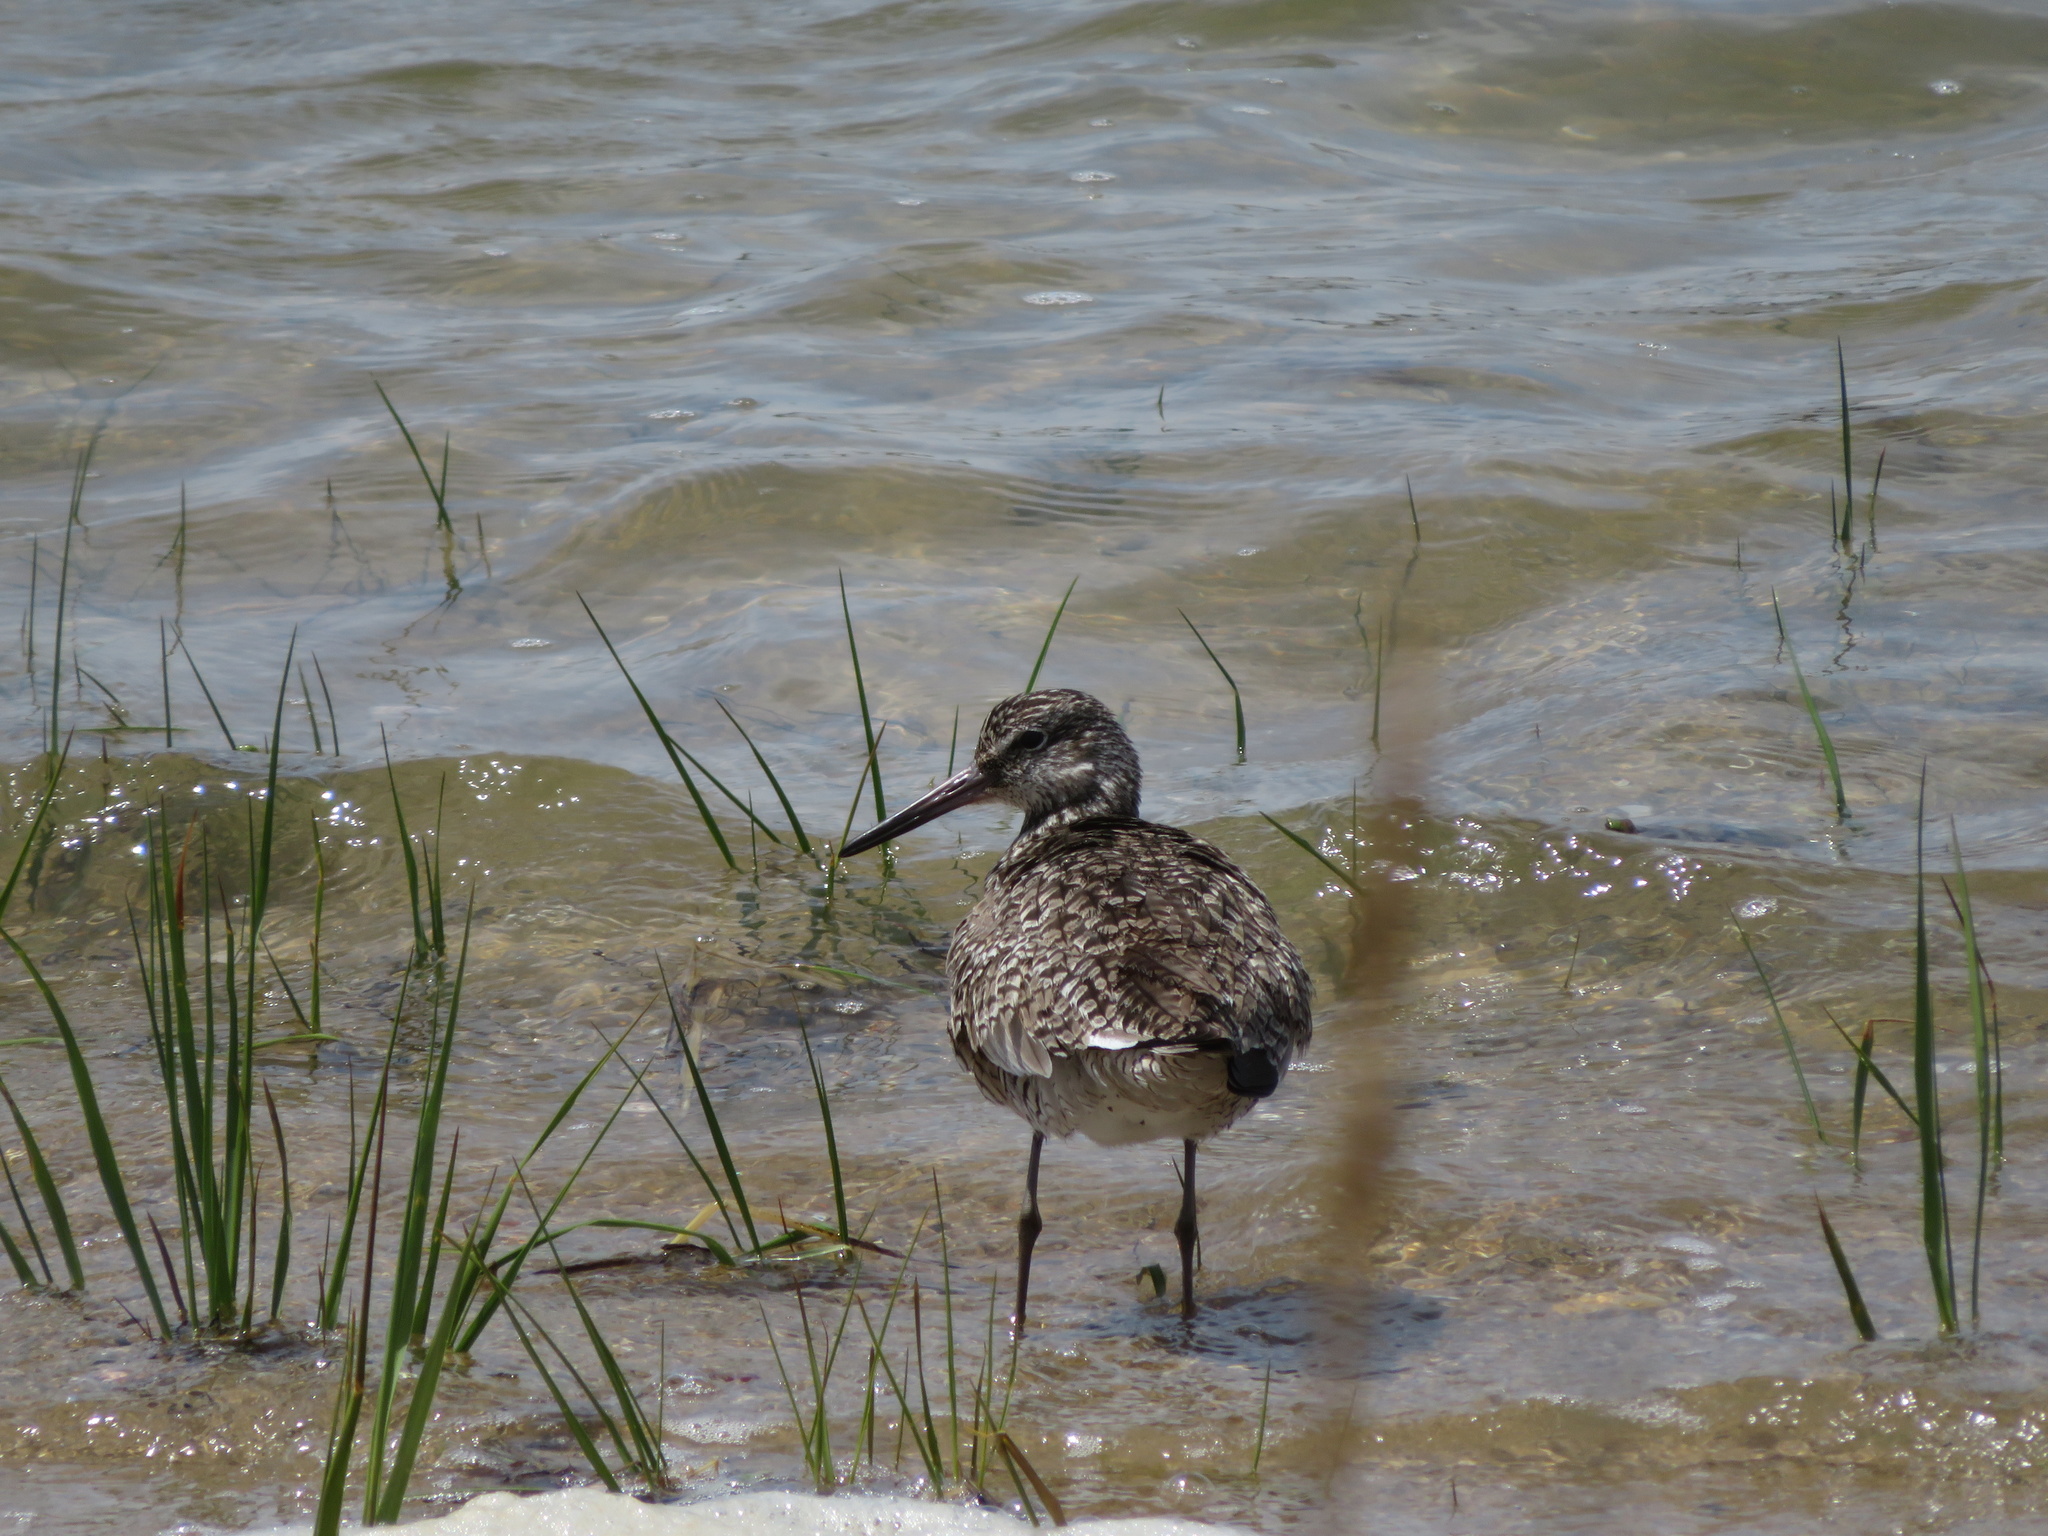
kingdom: Animalia
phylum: Chordata
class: Aves
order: Charadriiformes
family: Scolopacidae
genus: Tringa
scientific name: Tringa semipalmata
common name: Willet
